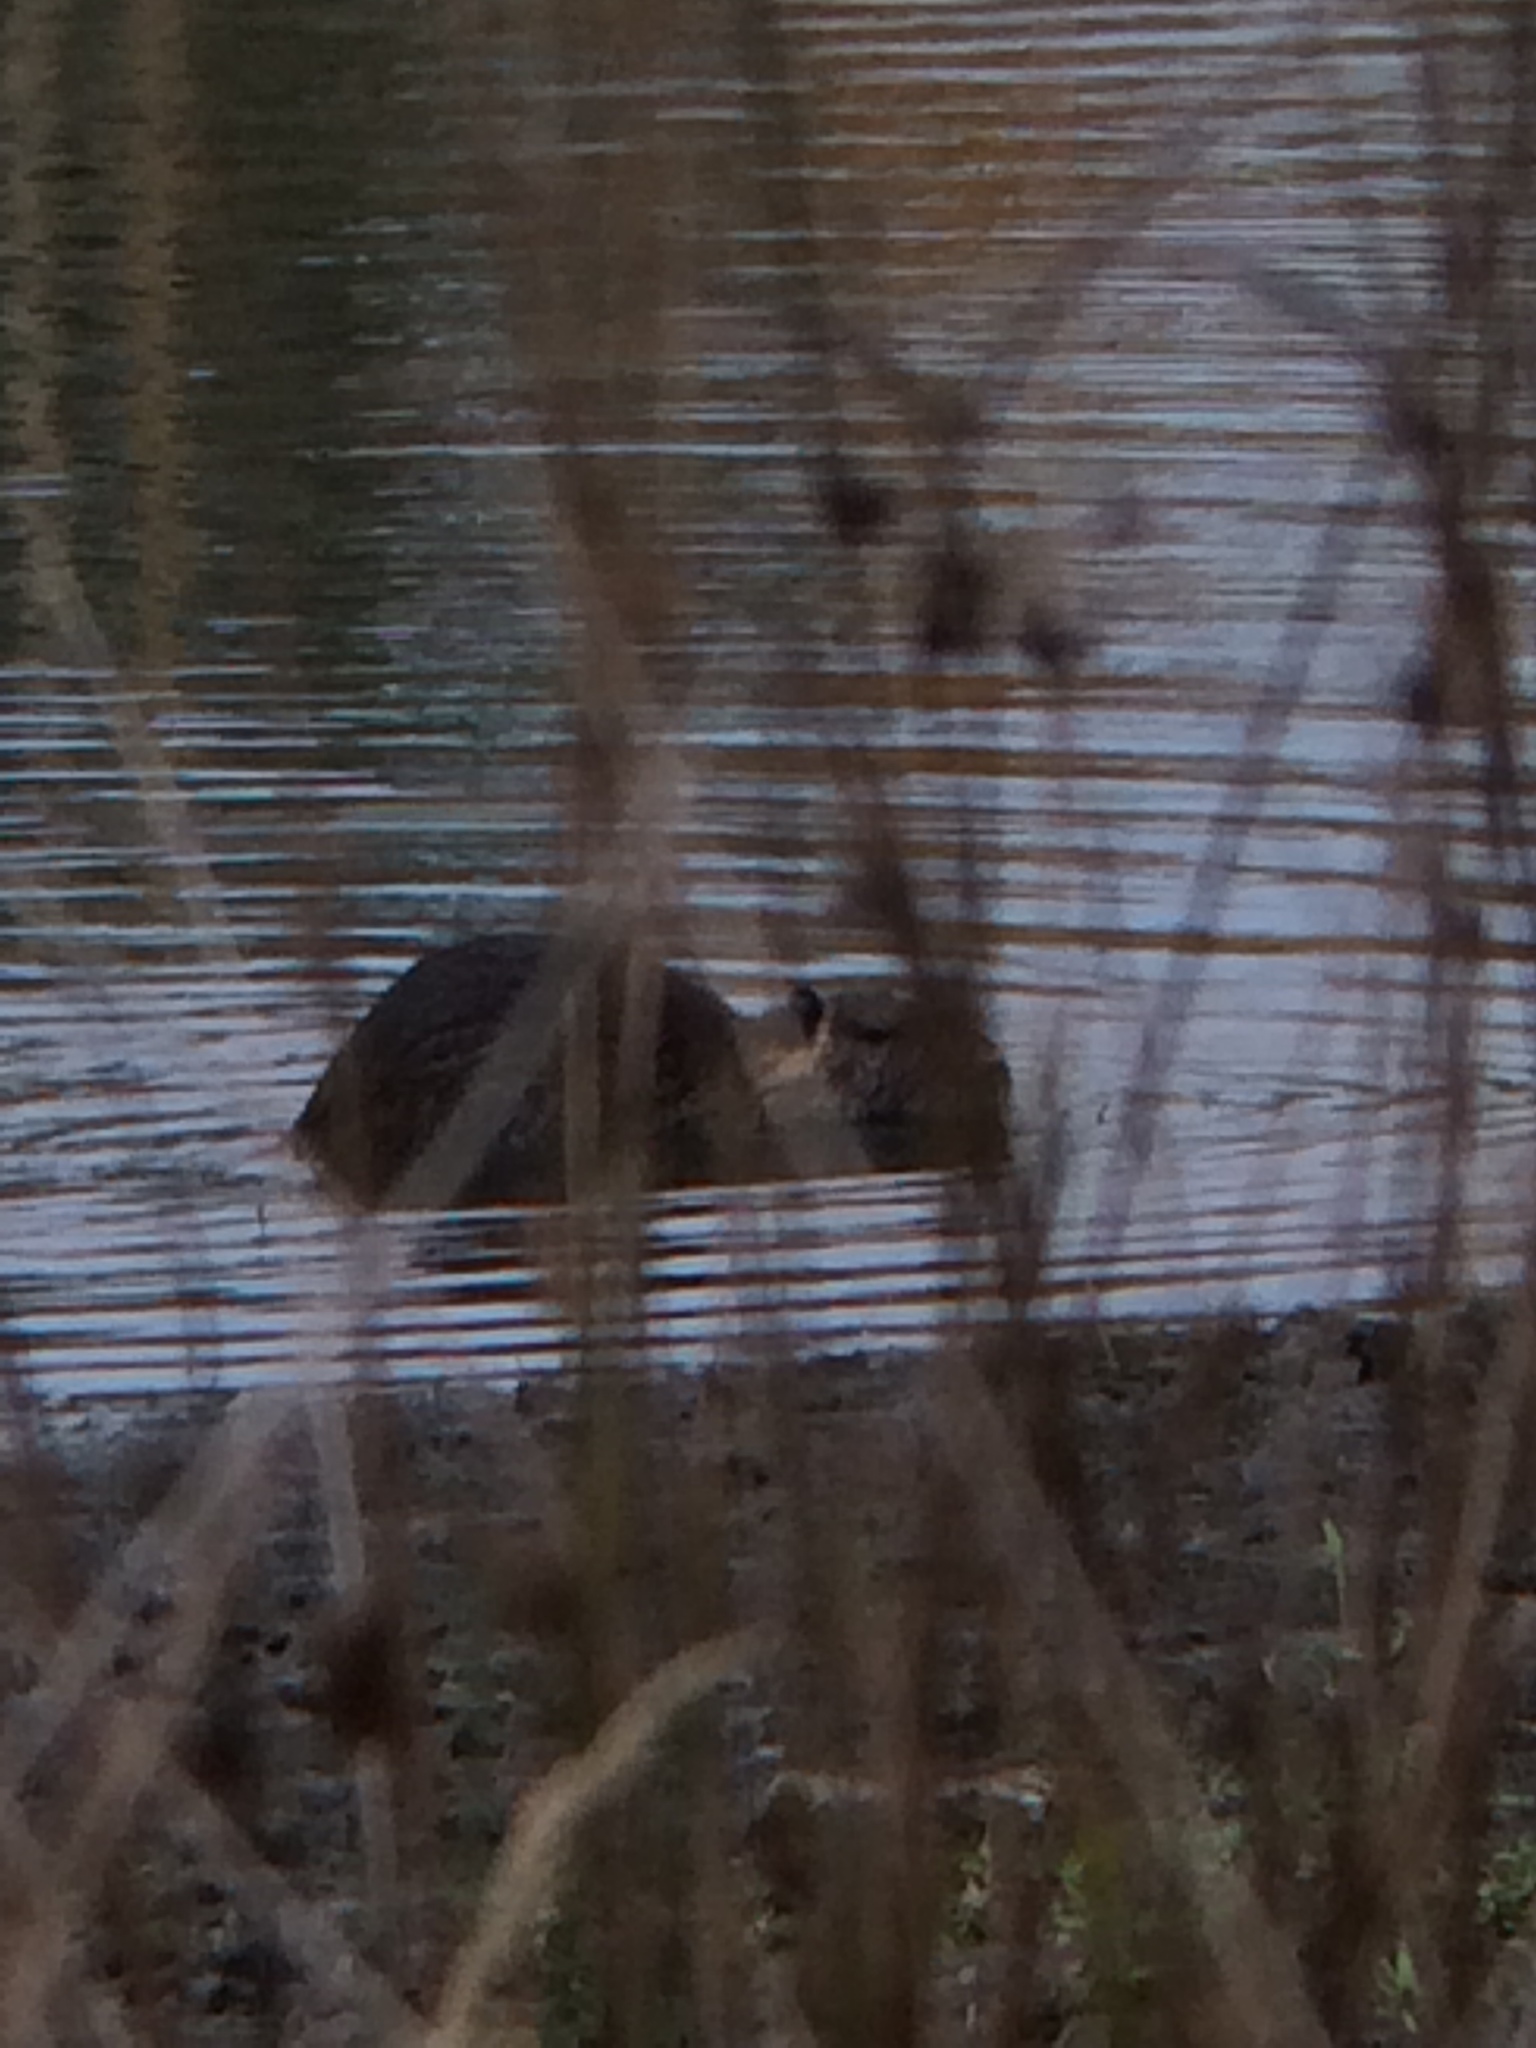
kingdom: Animalia
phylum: Chordata
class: Mammalia
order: Rodentia
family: Myocastoridae
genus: Myocastor
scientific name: Myocastor coypus
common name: Coypu
